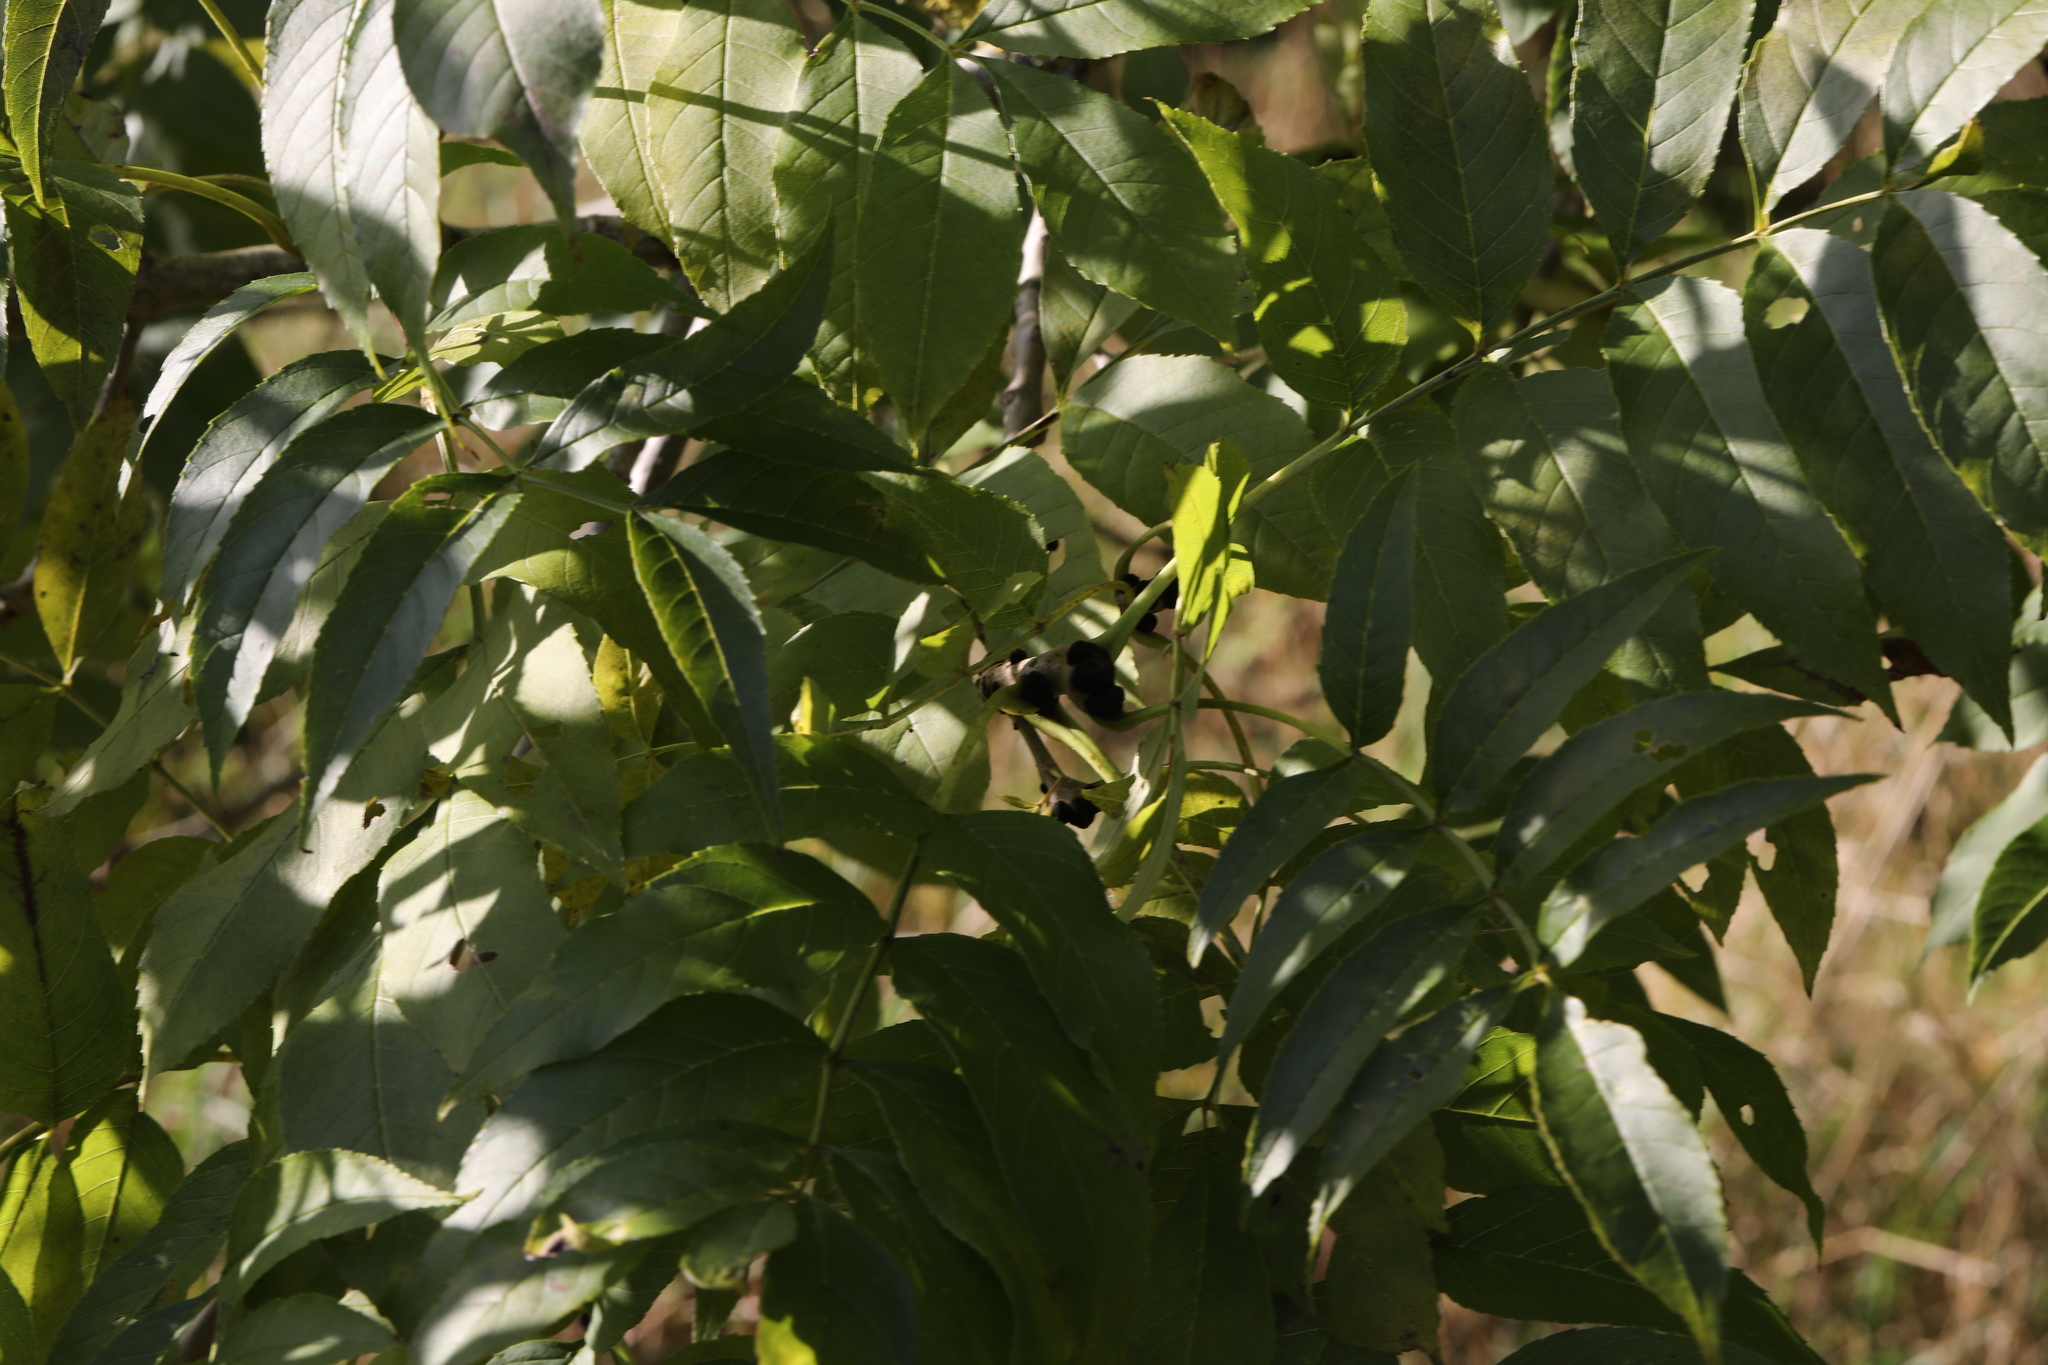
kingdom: Plantae
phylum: Tracheophyta
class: Magnoliopsida
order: Lamiales
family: Oleaceae
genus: Fraxinus
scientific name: Fraxinus excelsior
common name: European ash
